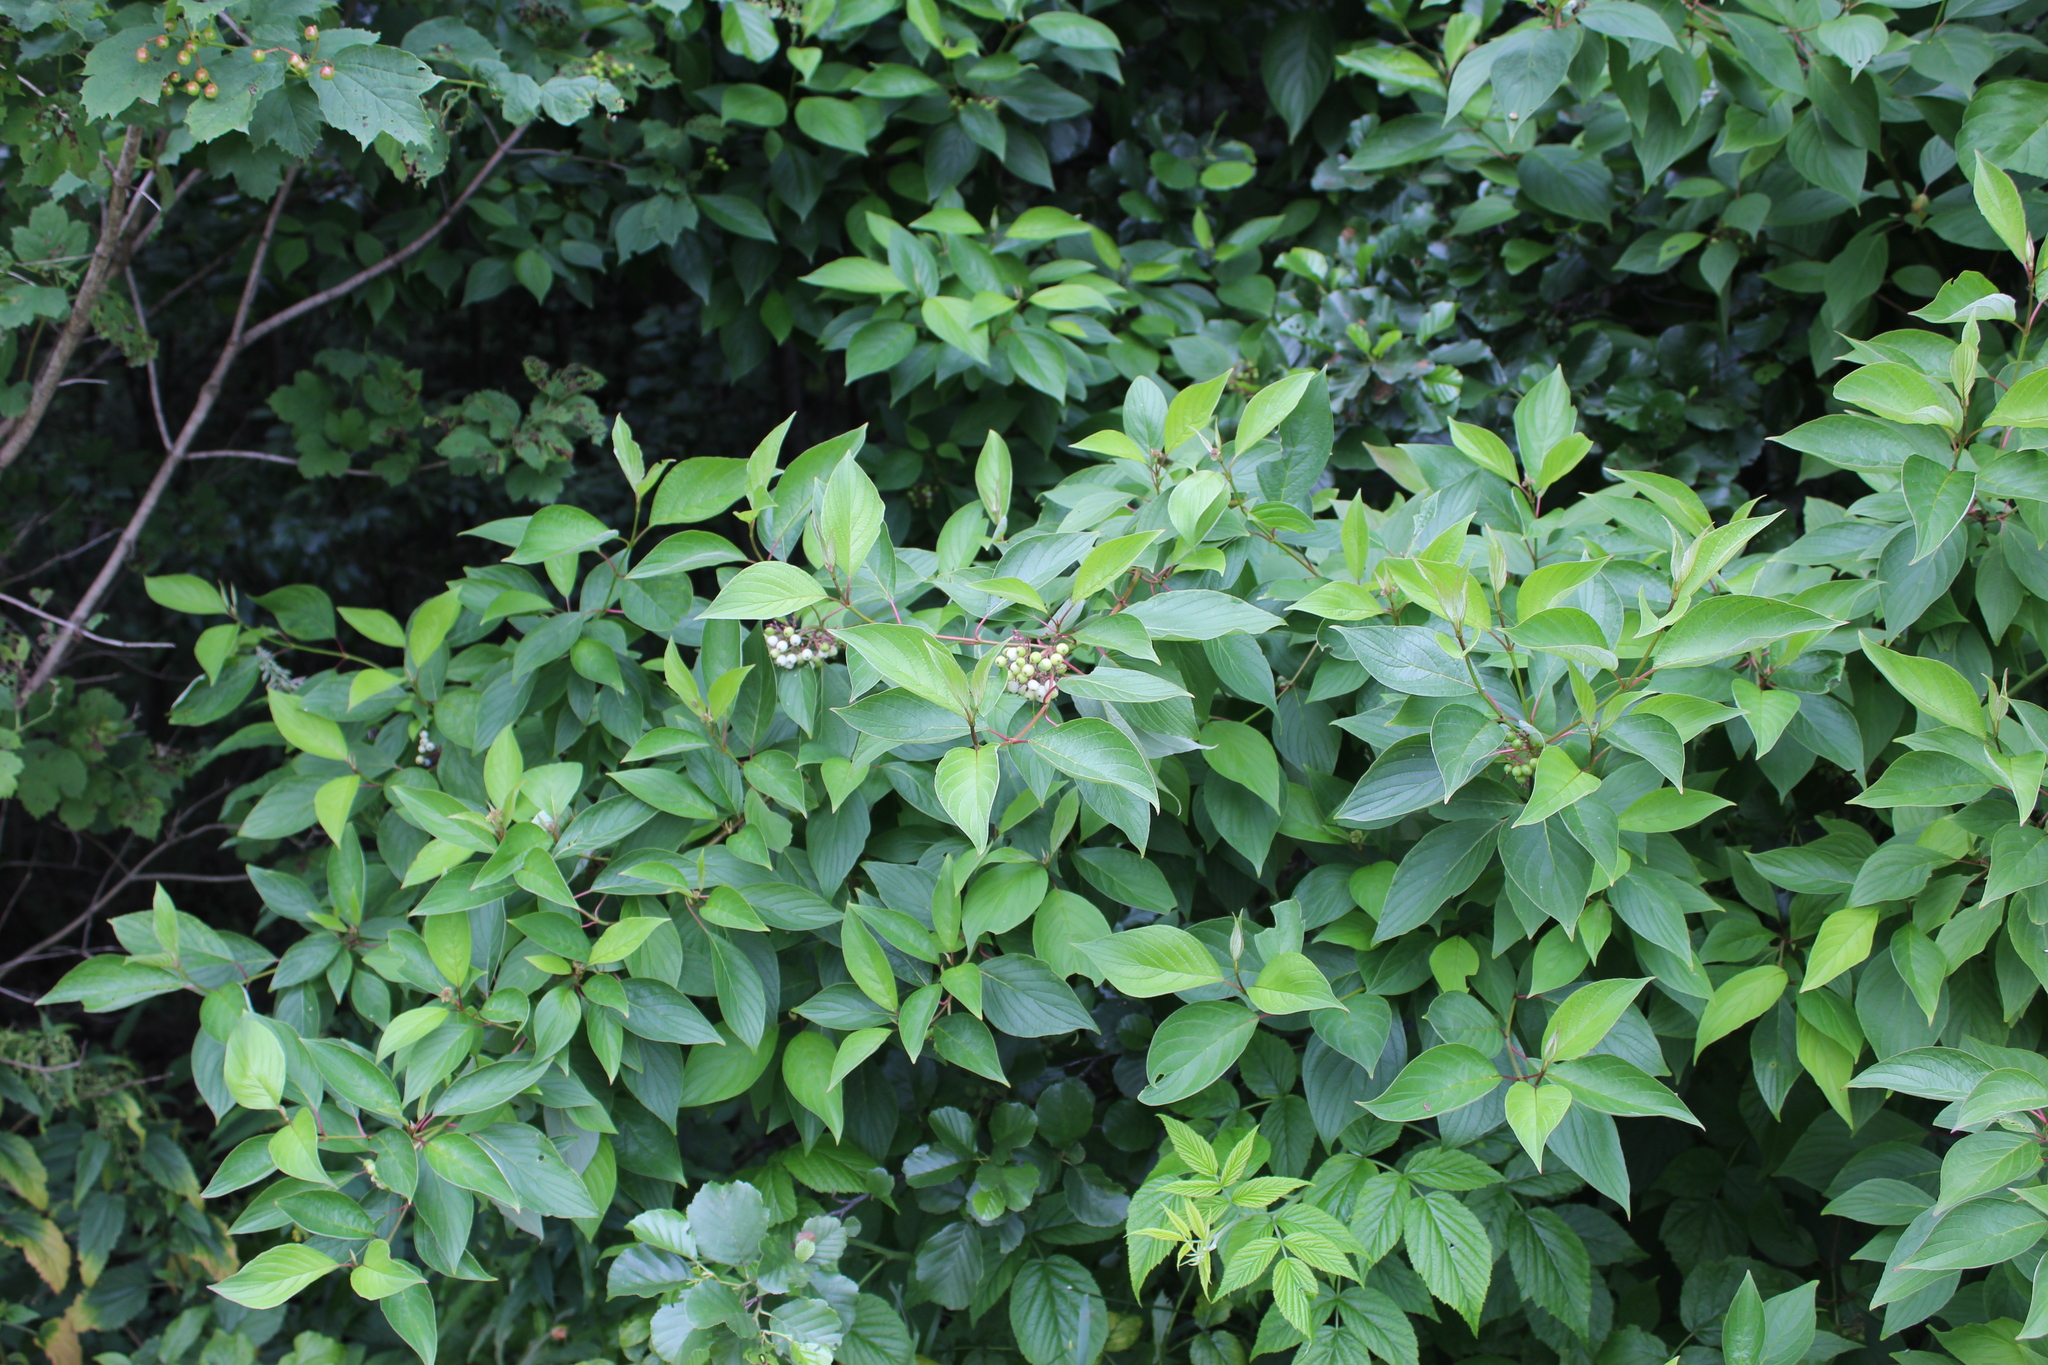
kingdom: Plantae
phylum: Tracheophyta
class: Magnoliopsida
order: Cornales
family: Cornaceae
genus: Cornus
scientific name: Cornus alba
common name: White dogwood
